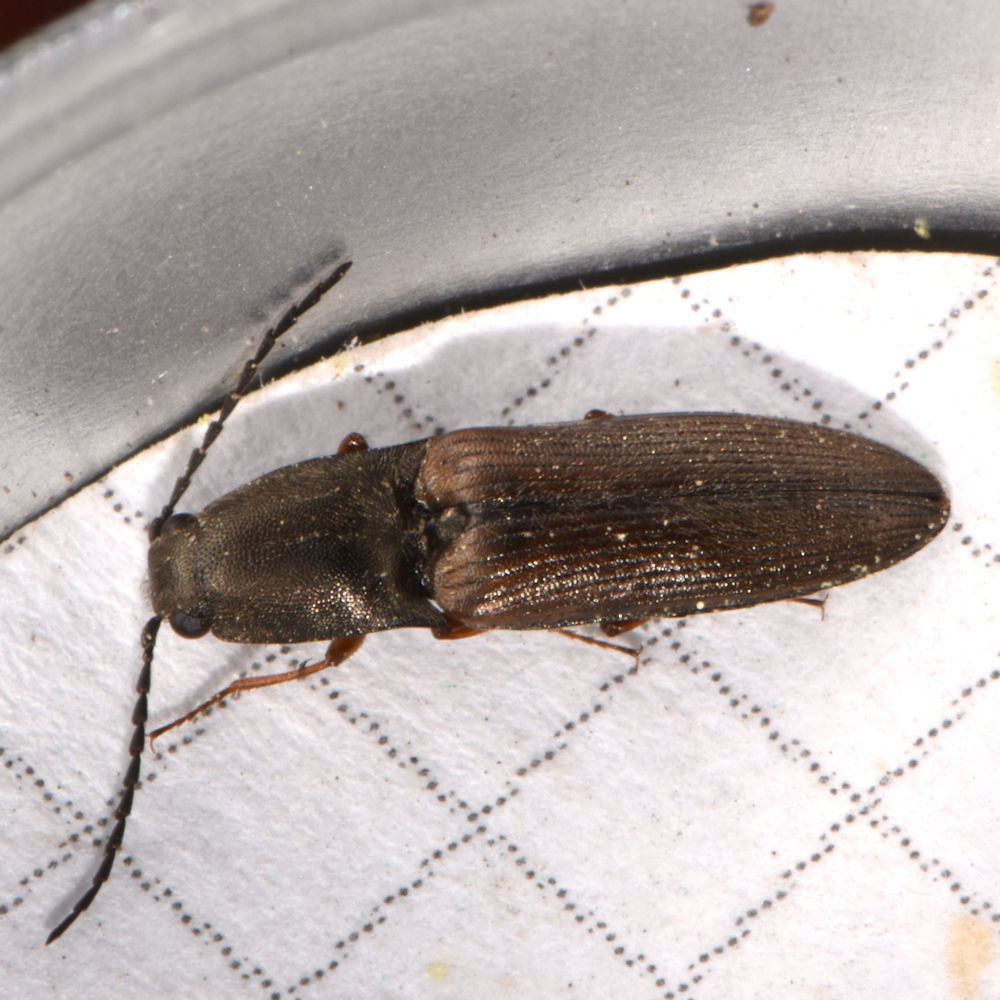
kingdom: Animalia
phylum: Arthropoda
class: Insecta
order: Coleoptera
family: Elateridae
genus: Corymbitodes
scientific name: Corymbitodes tarsalis
